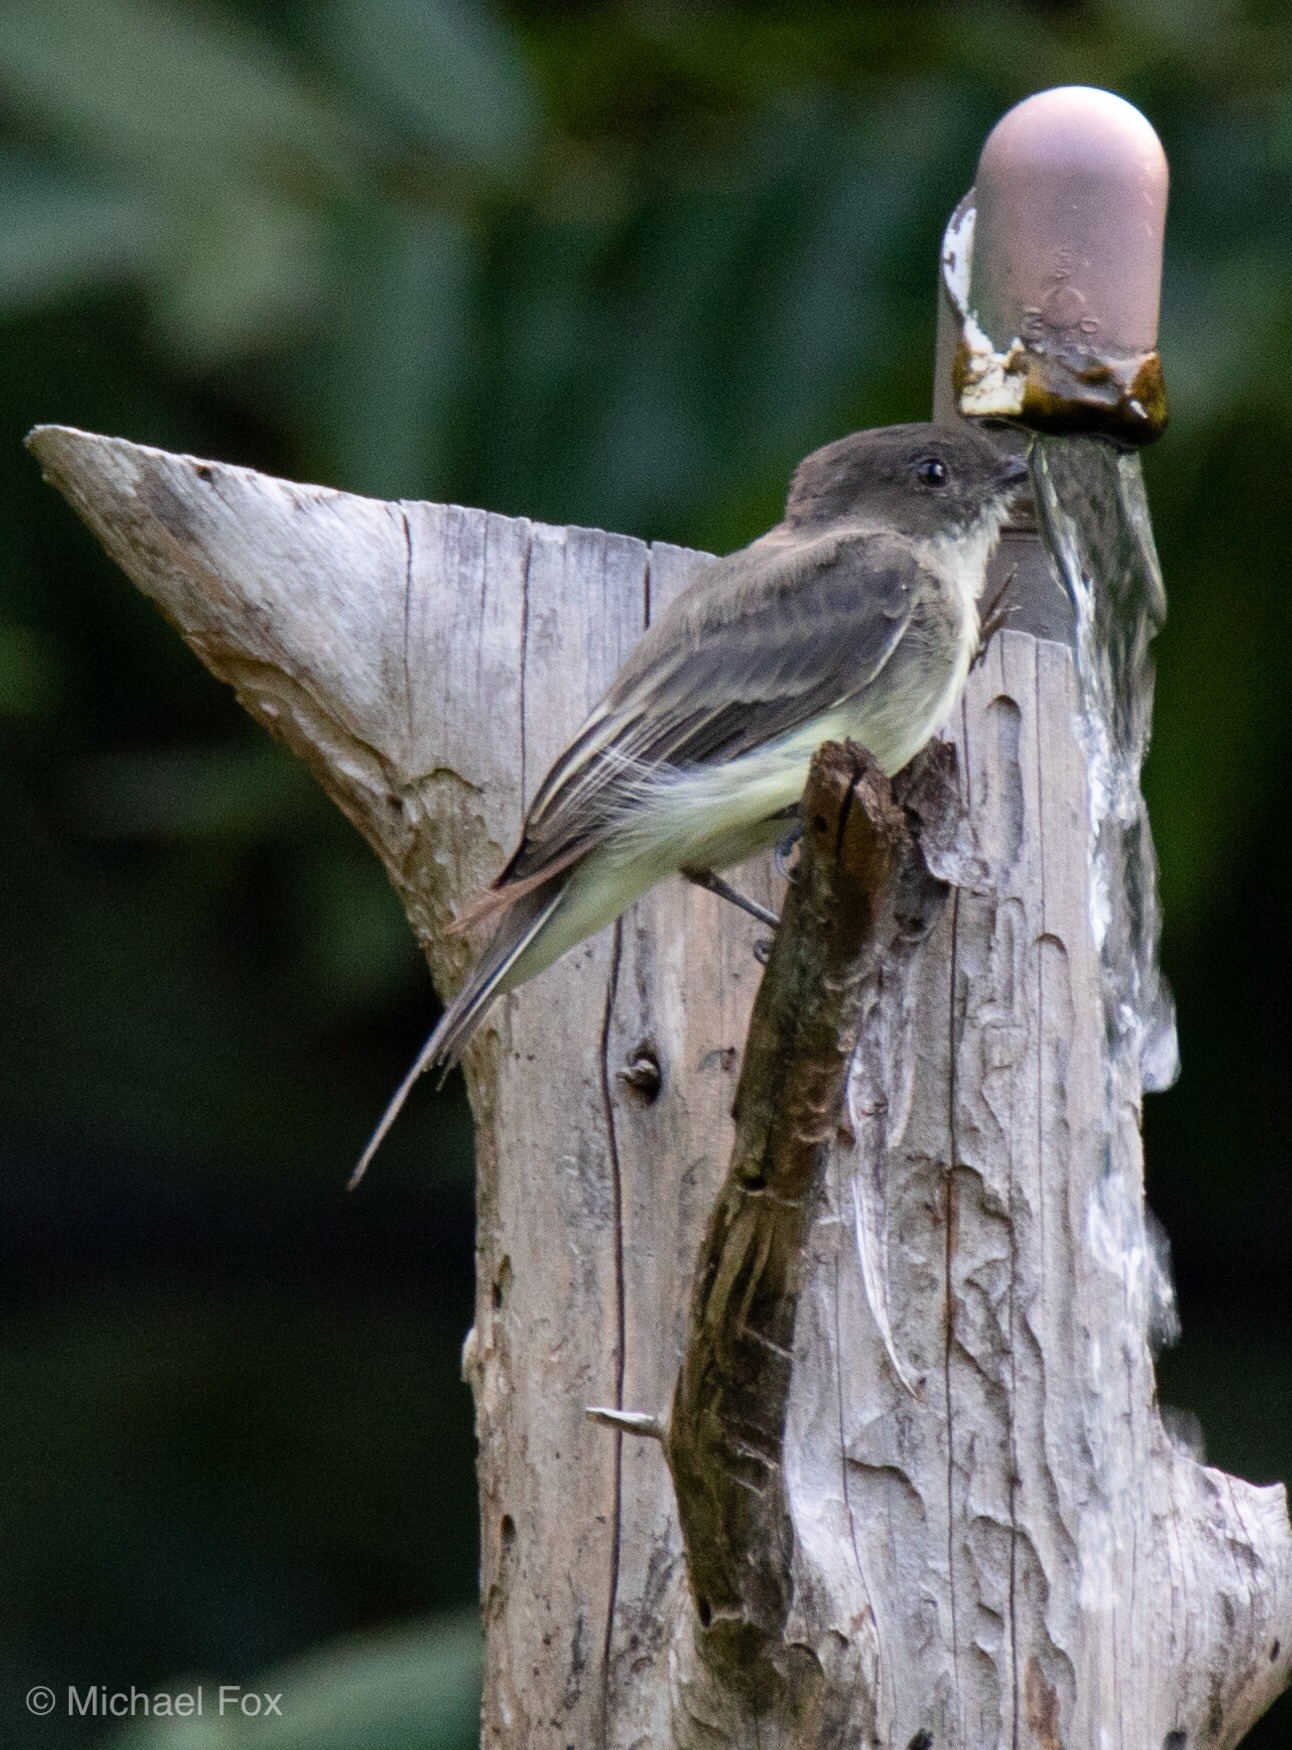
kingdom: Animalia
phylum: Chordata
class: Aves
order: Passeriformes
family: Tyrannidae
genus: Sayornis
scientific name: Sayornis phoebe
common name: Eastern phoebe
